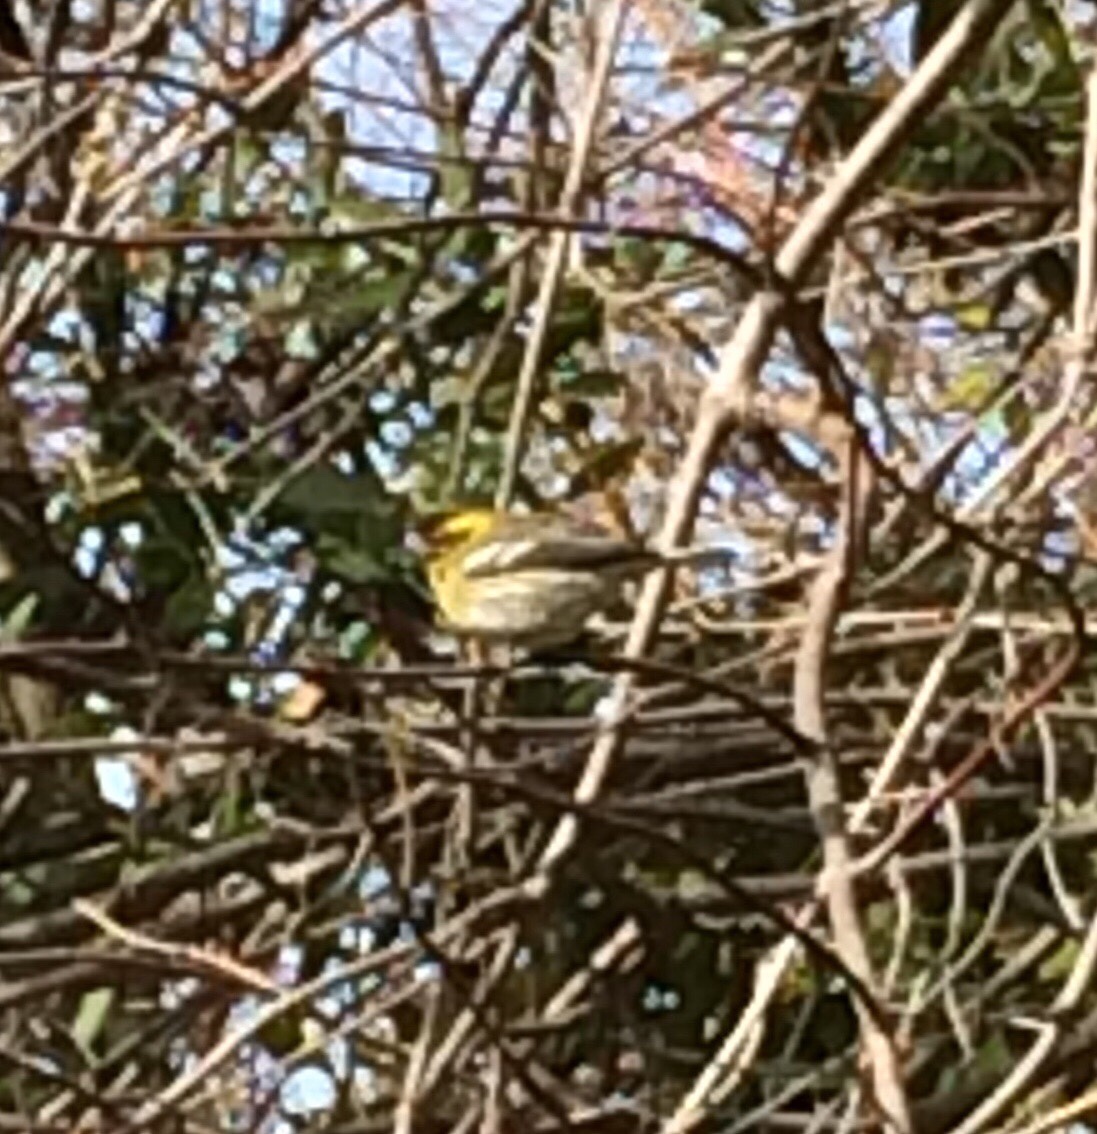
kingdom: Animalia
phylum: Chordata
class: Aves
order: Passeriformes
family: Parulidae
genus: Setophaga
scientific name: Setophaga townsendi
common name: Townsend's warbler
